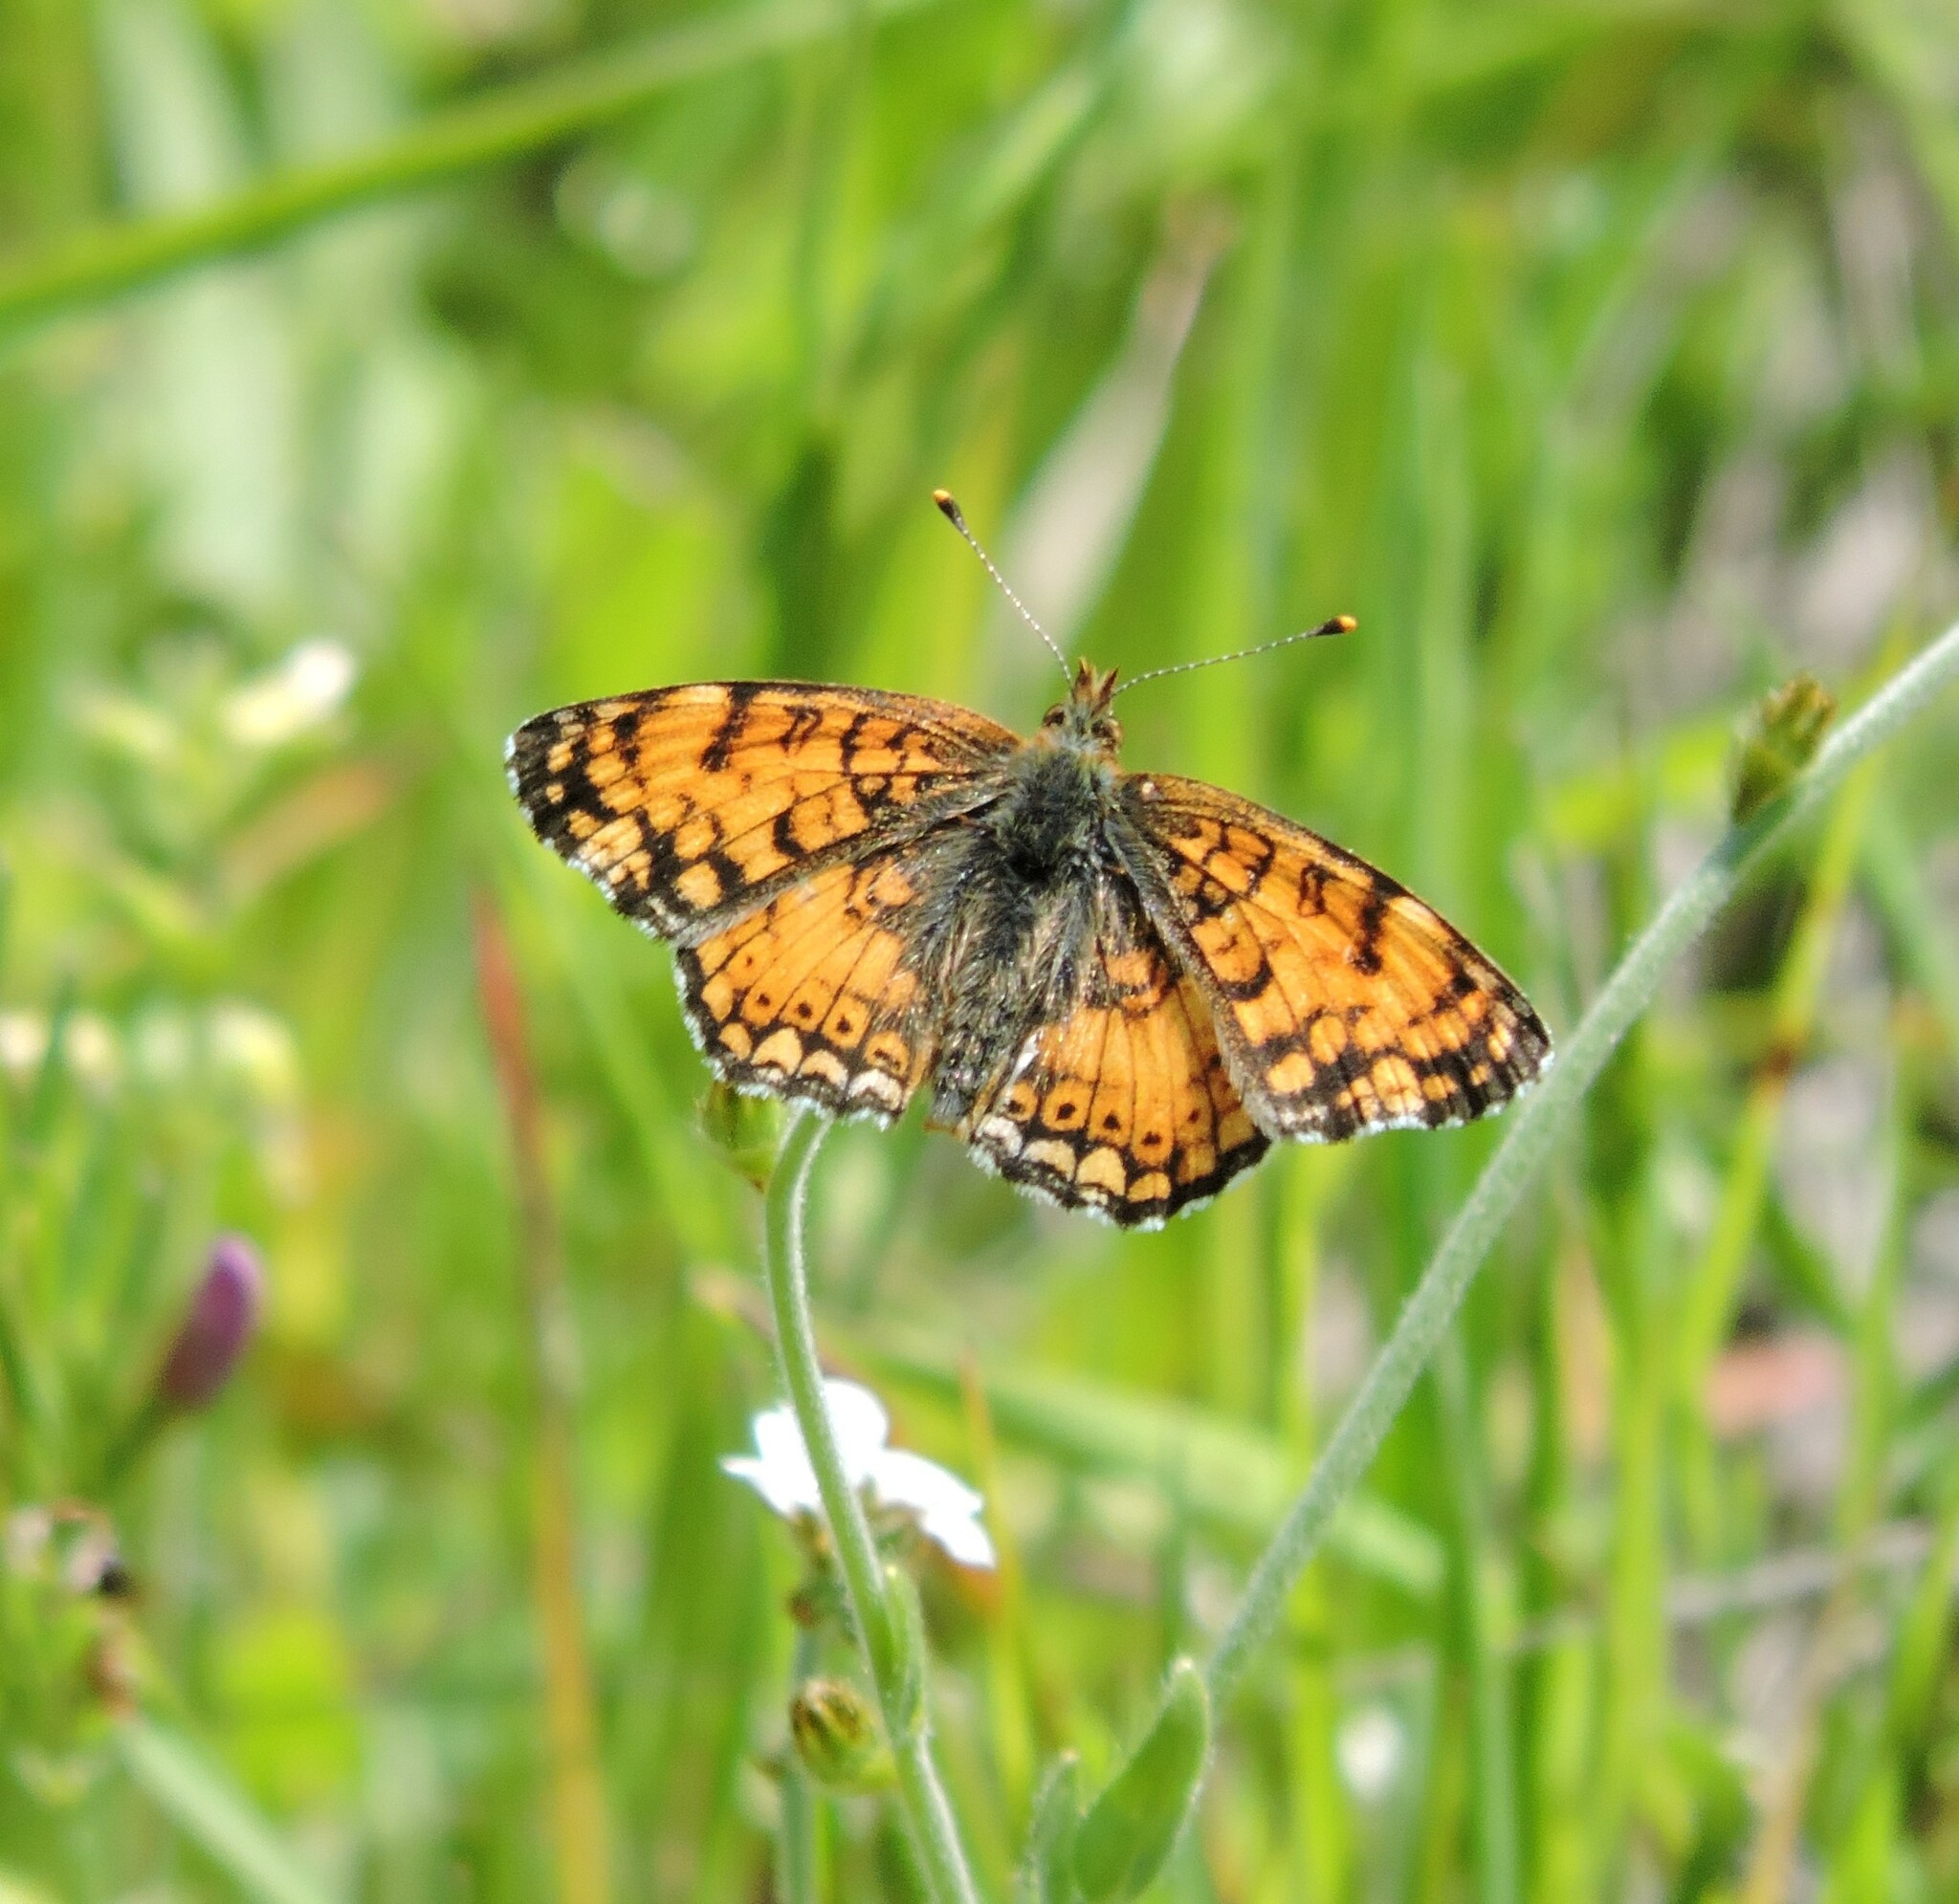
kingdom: Animalia
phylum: Arthropoda
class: Insecta
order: Lepidoptera
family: Nymphalidae
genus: Eresia
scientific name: Eresia aveyrona
